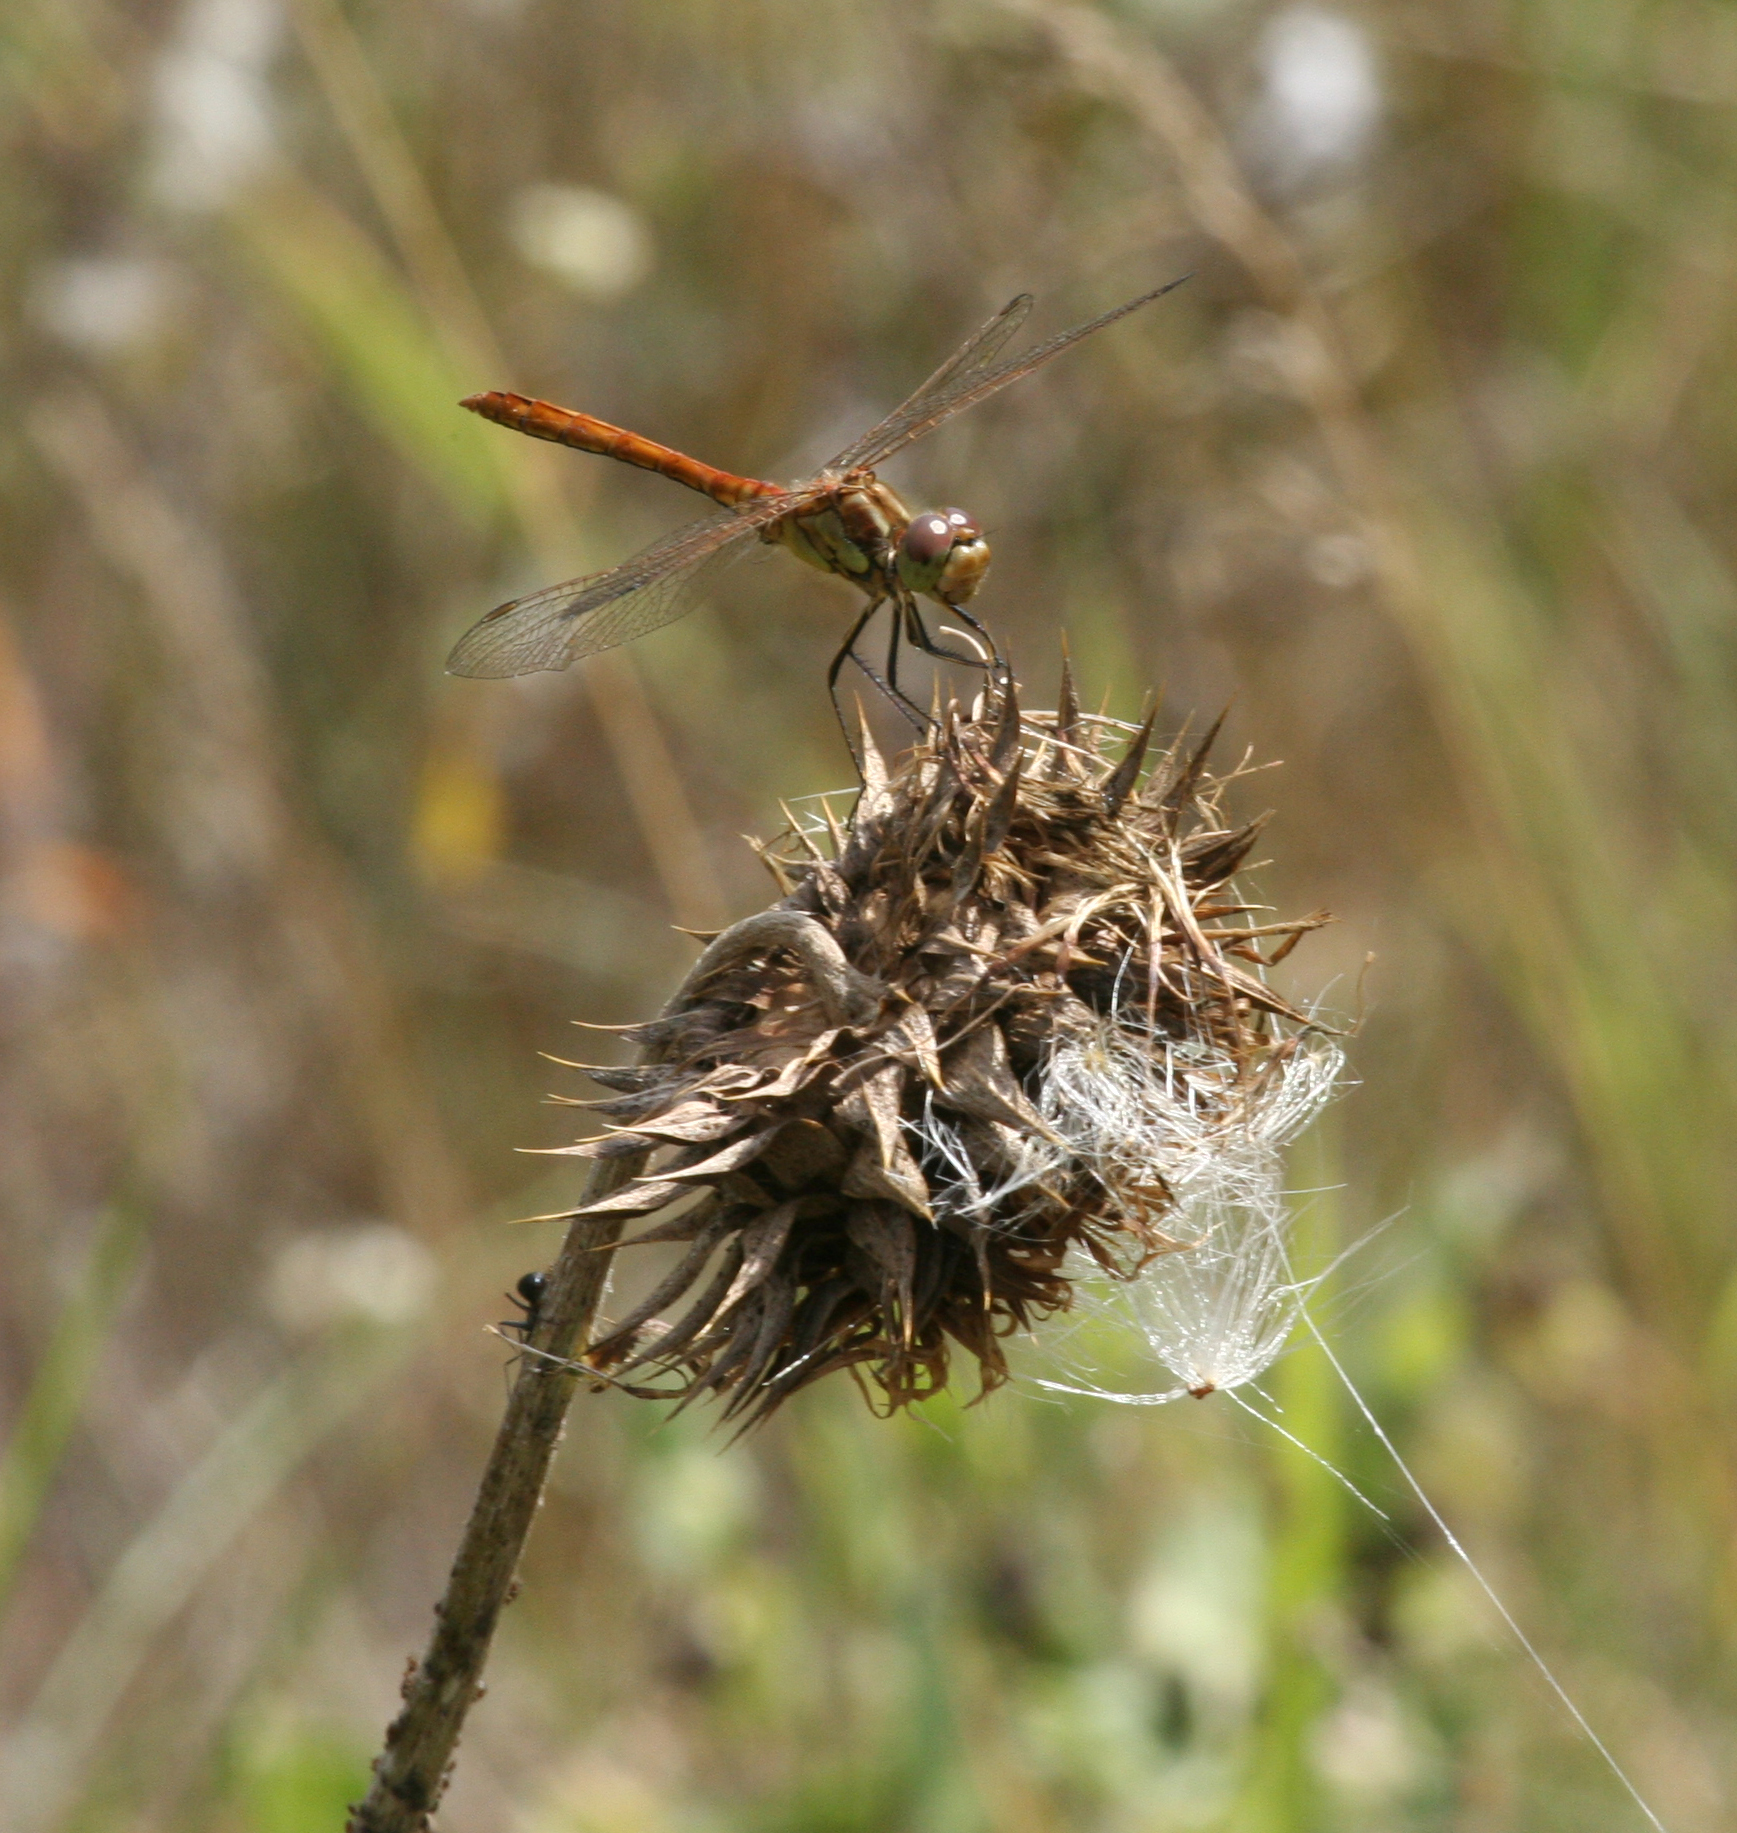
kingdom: Animalia
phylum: Arthropoda
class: Insecta
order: Odonata
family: Libellulidae
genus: Sympetrum
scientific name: Sympetrum vulgatum
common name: Vagrant darter
